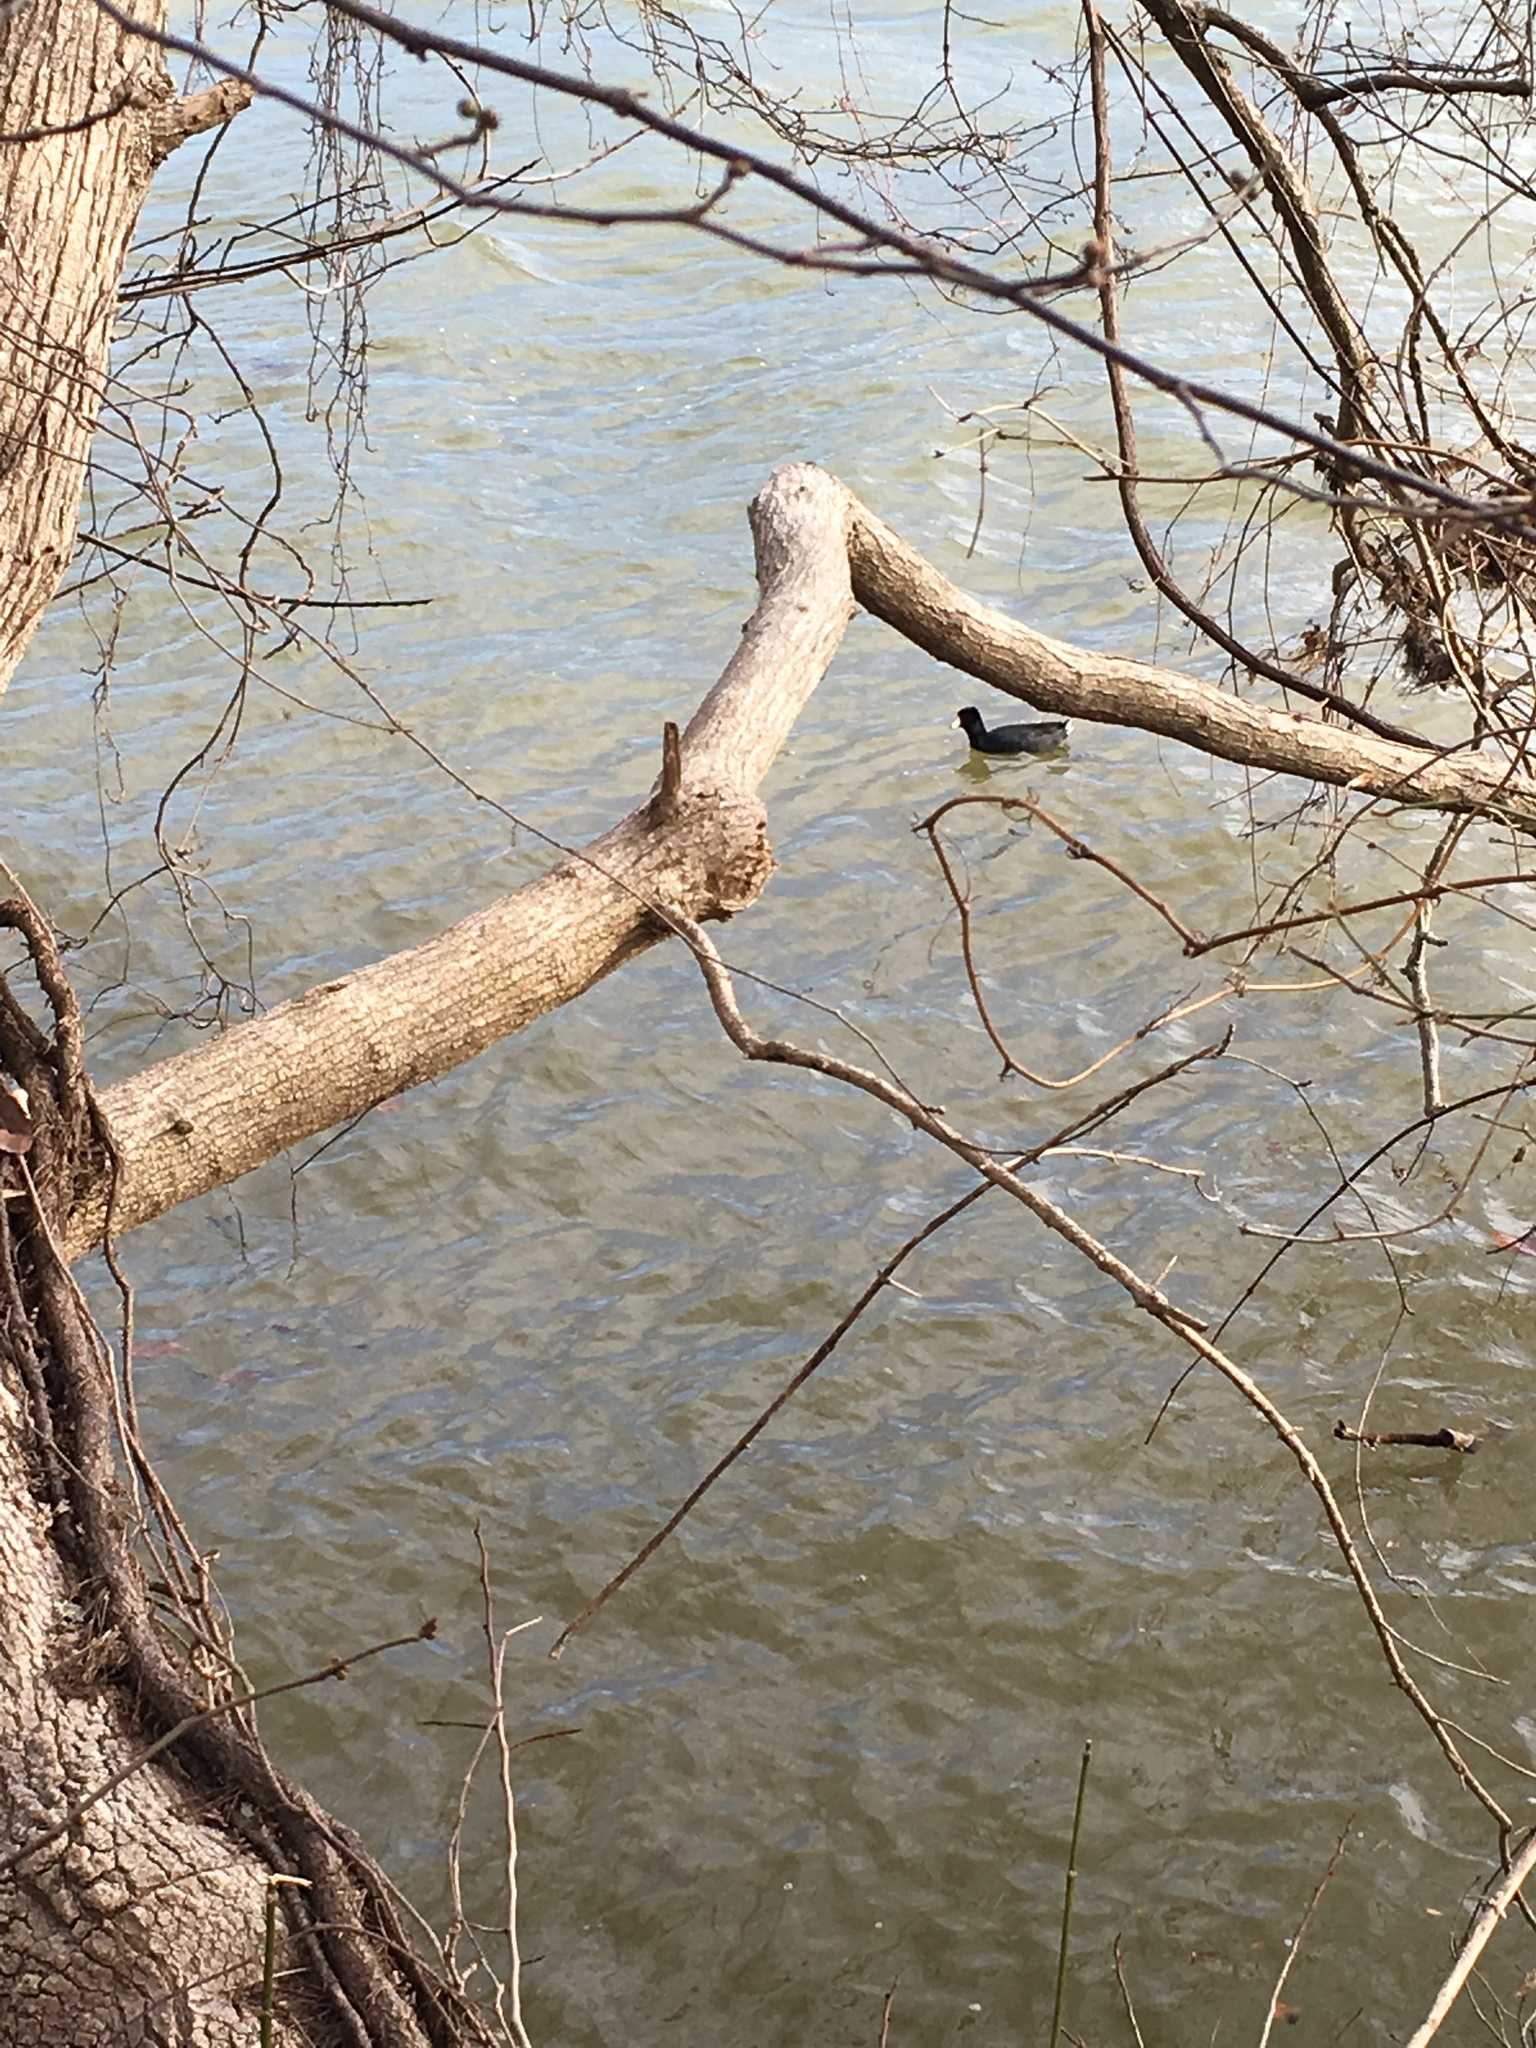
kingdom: Animalia
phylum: Chordata
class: Aves
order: Gruiformes
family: Rallidae
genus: Fulica
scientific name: Fulica americana
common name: American coot
